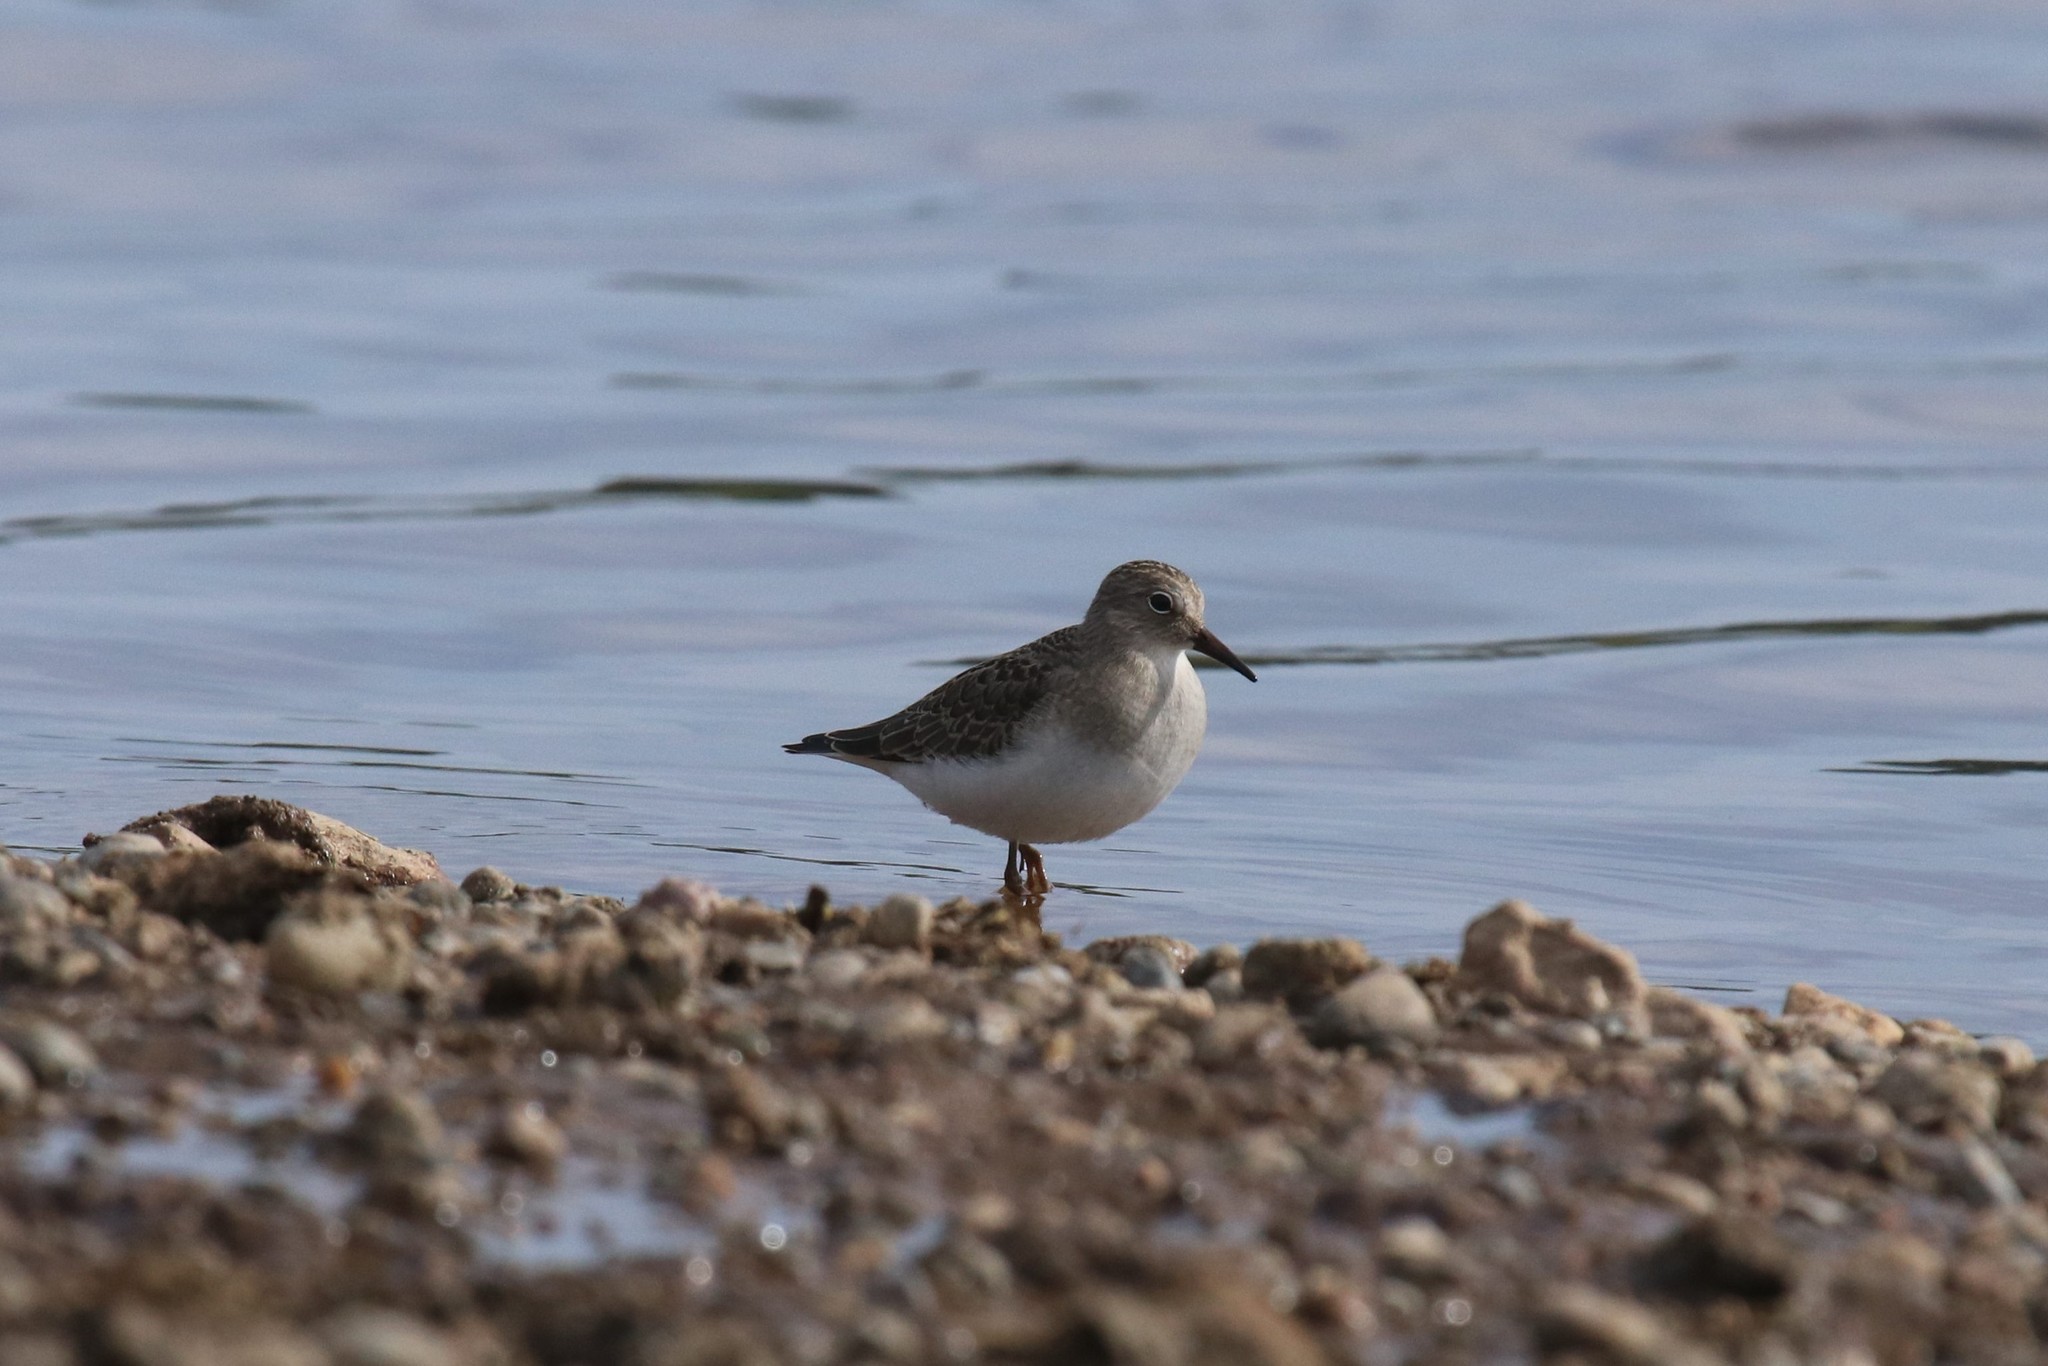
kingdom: Animalia
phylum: Chordata
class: Aves
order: Charadriiformes
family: Scolopacidae
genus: Calidris
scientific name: Calidris temminckii
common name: Temminck's stint
